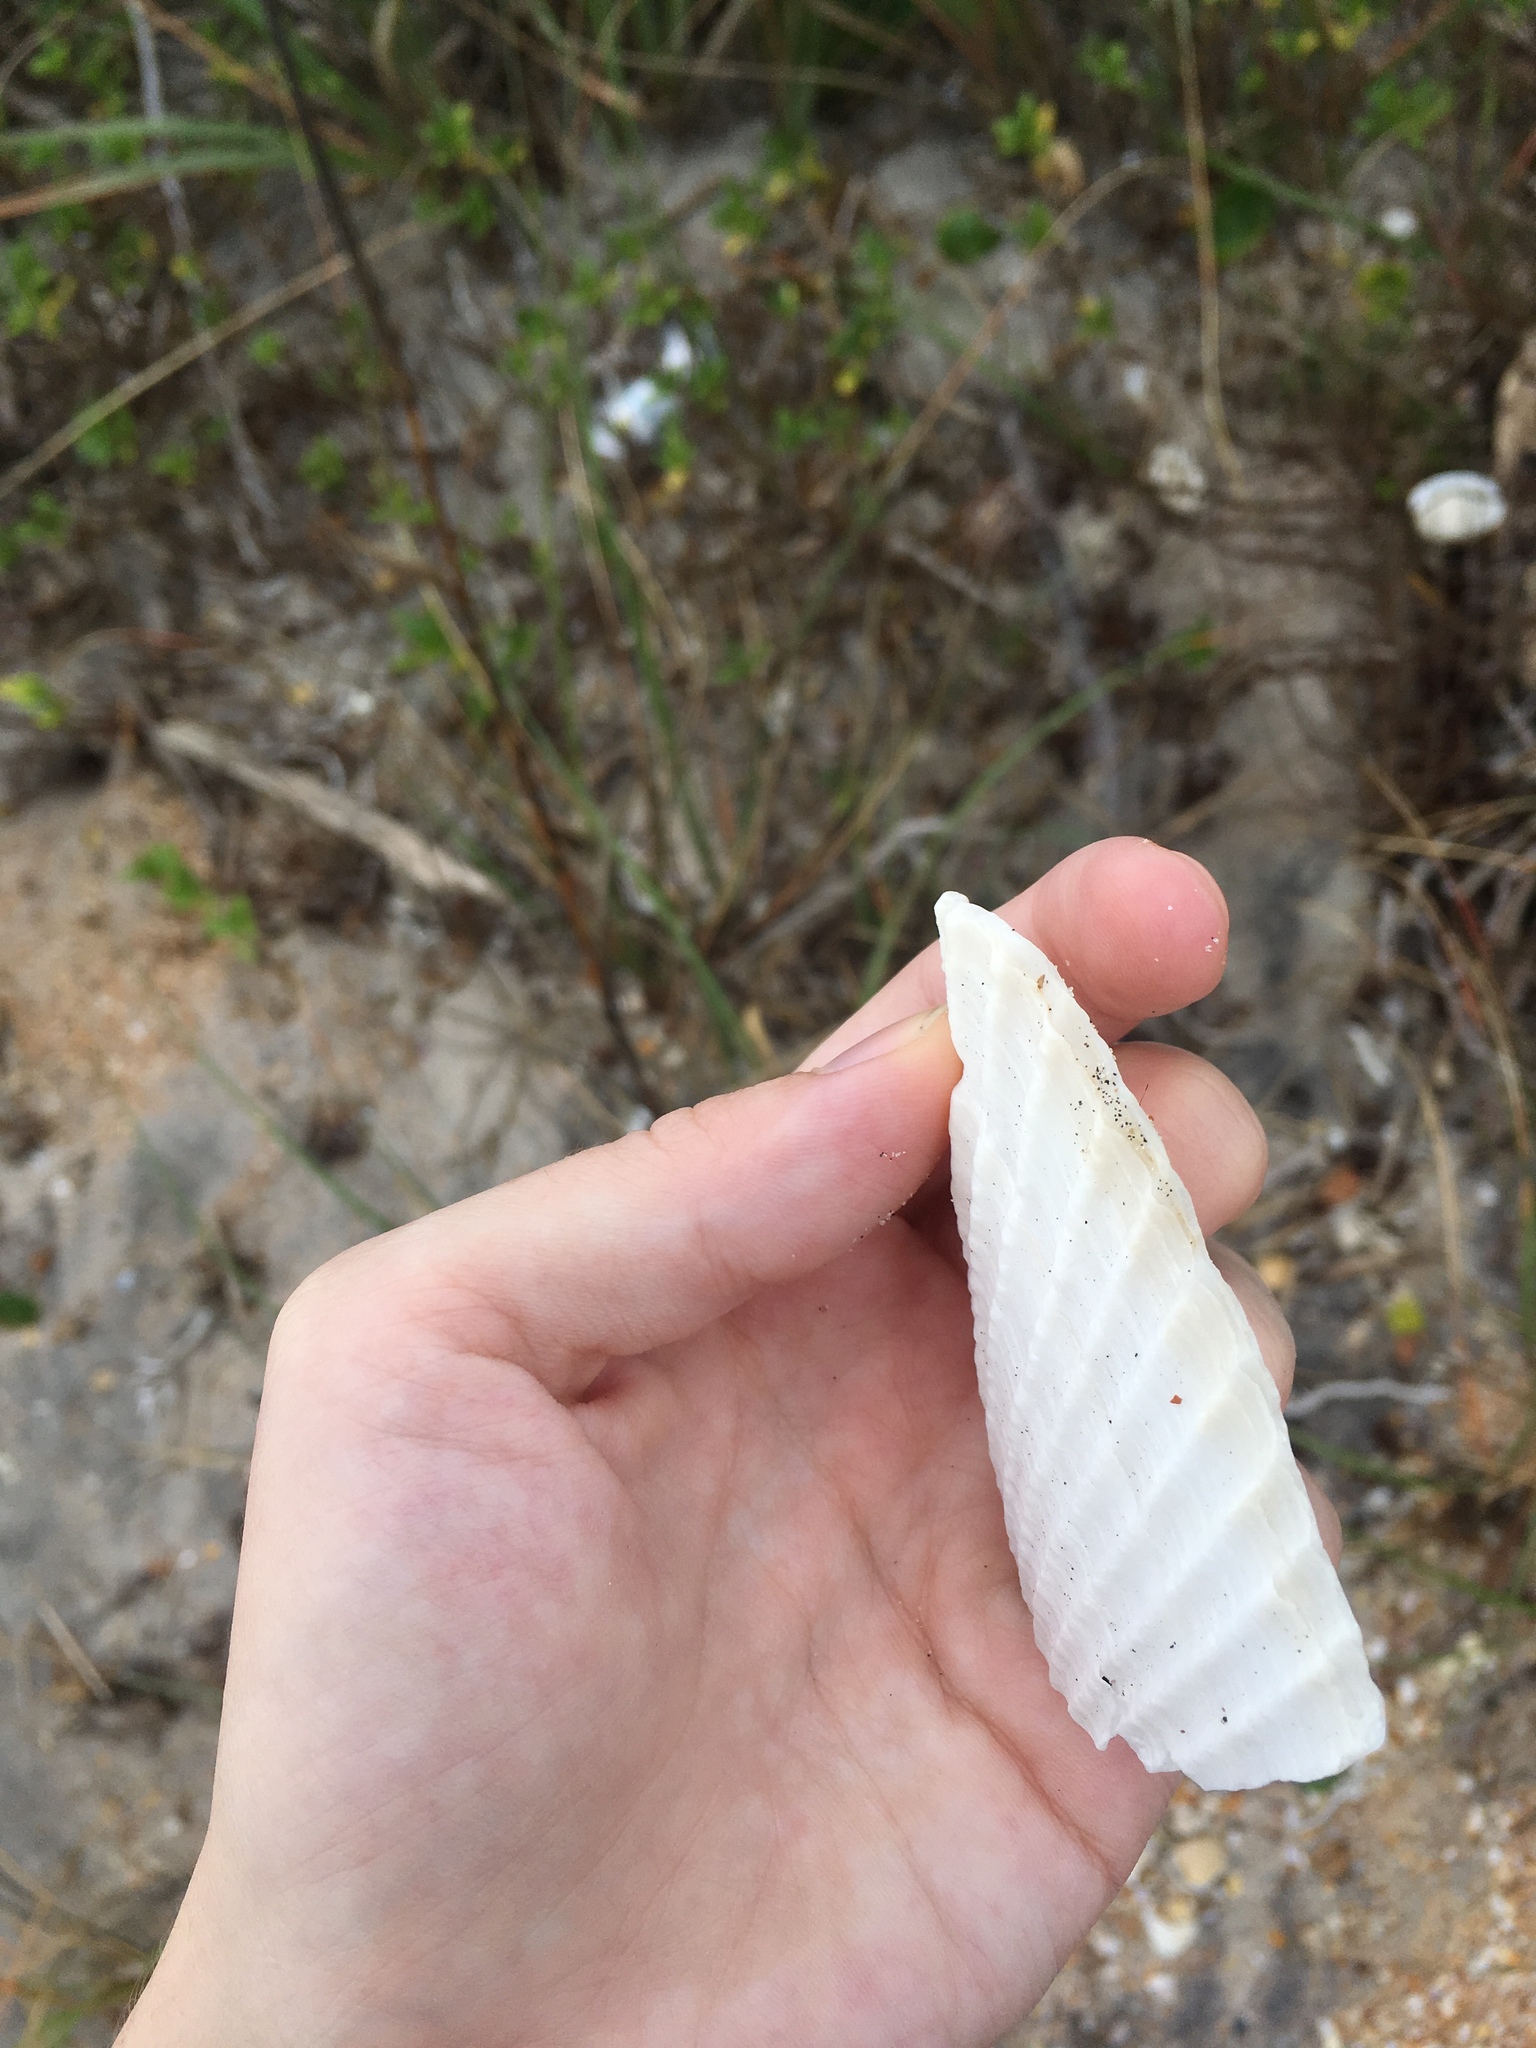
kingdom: Animalia
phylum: Mollusca
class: Bivalvia
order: Myida
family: Pholadidae
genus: Cyrtopleura
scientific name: Cyrtopleura costata
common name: Angel wing
